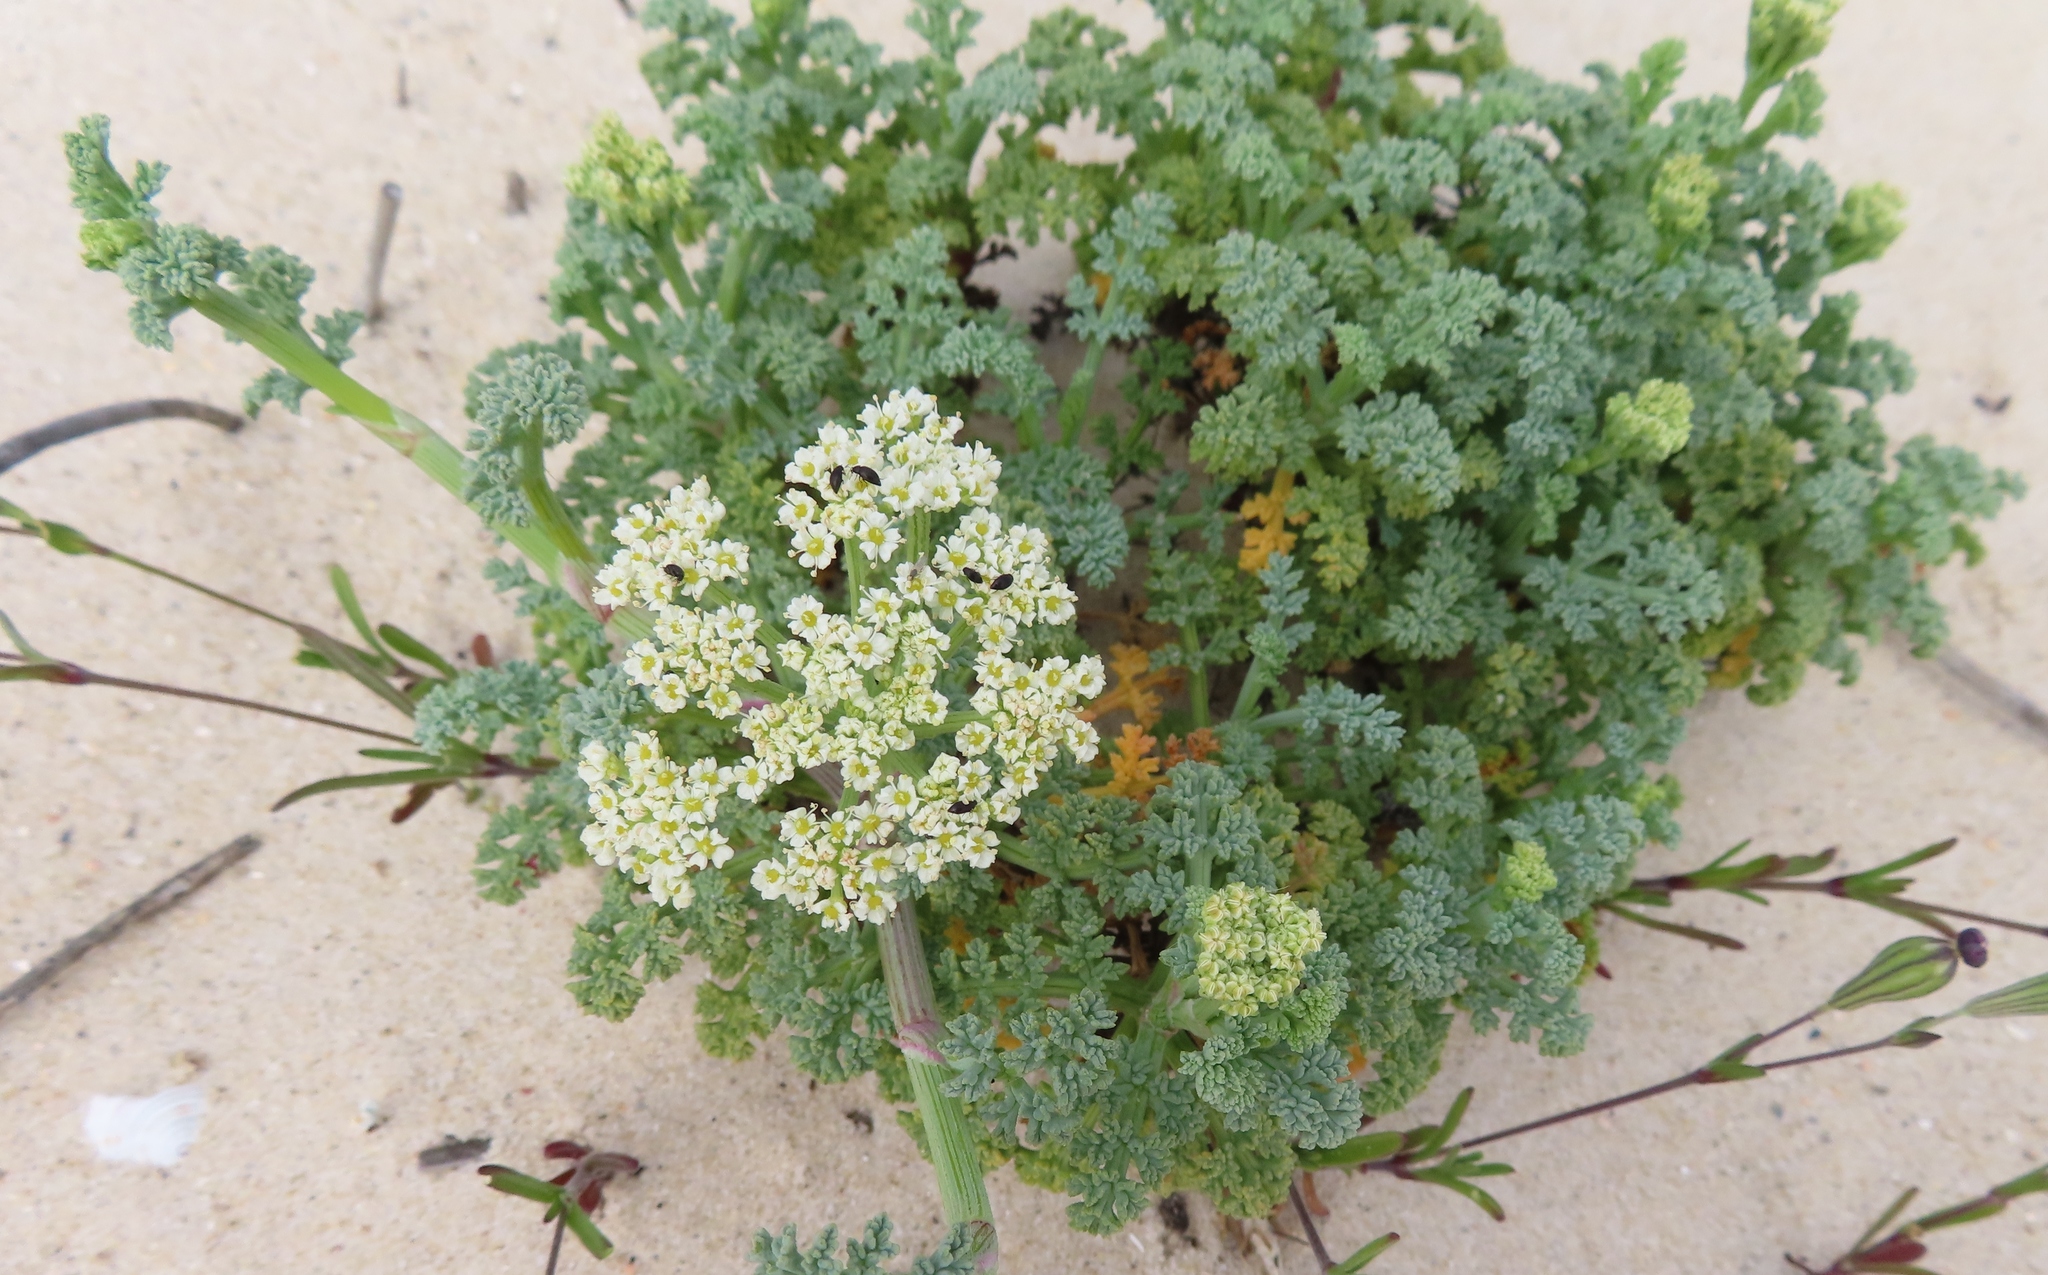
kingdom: Plantae
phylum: Tracheophyta
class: Magnoliopsida
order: Apiales
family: Apiaceae
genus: Dasispermum
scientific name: Dasispermum suffruticosum
